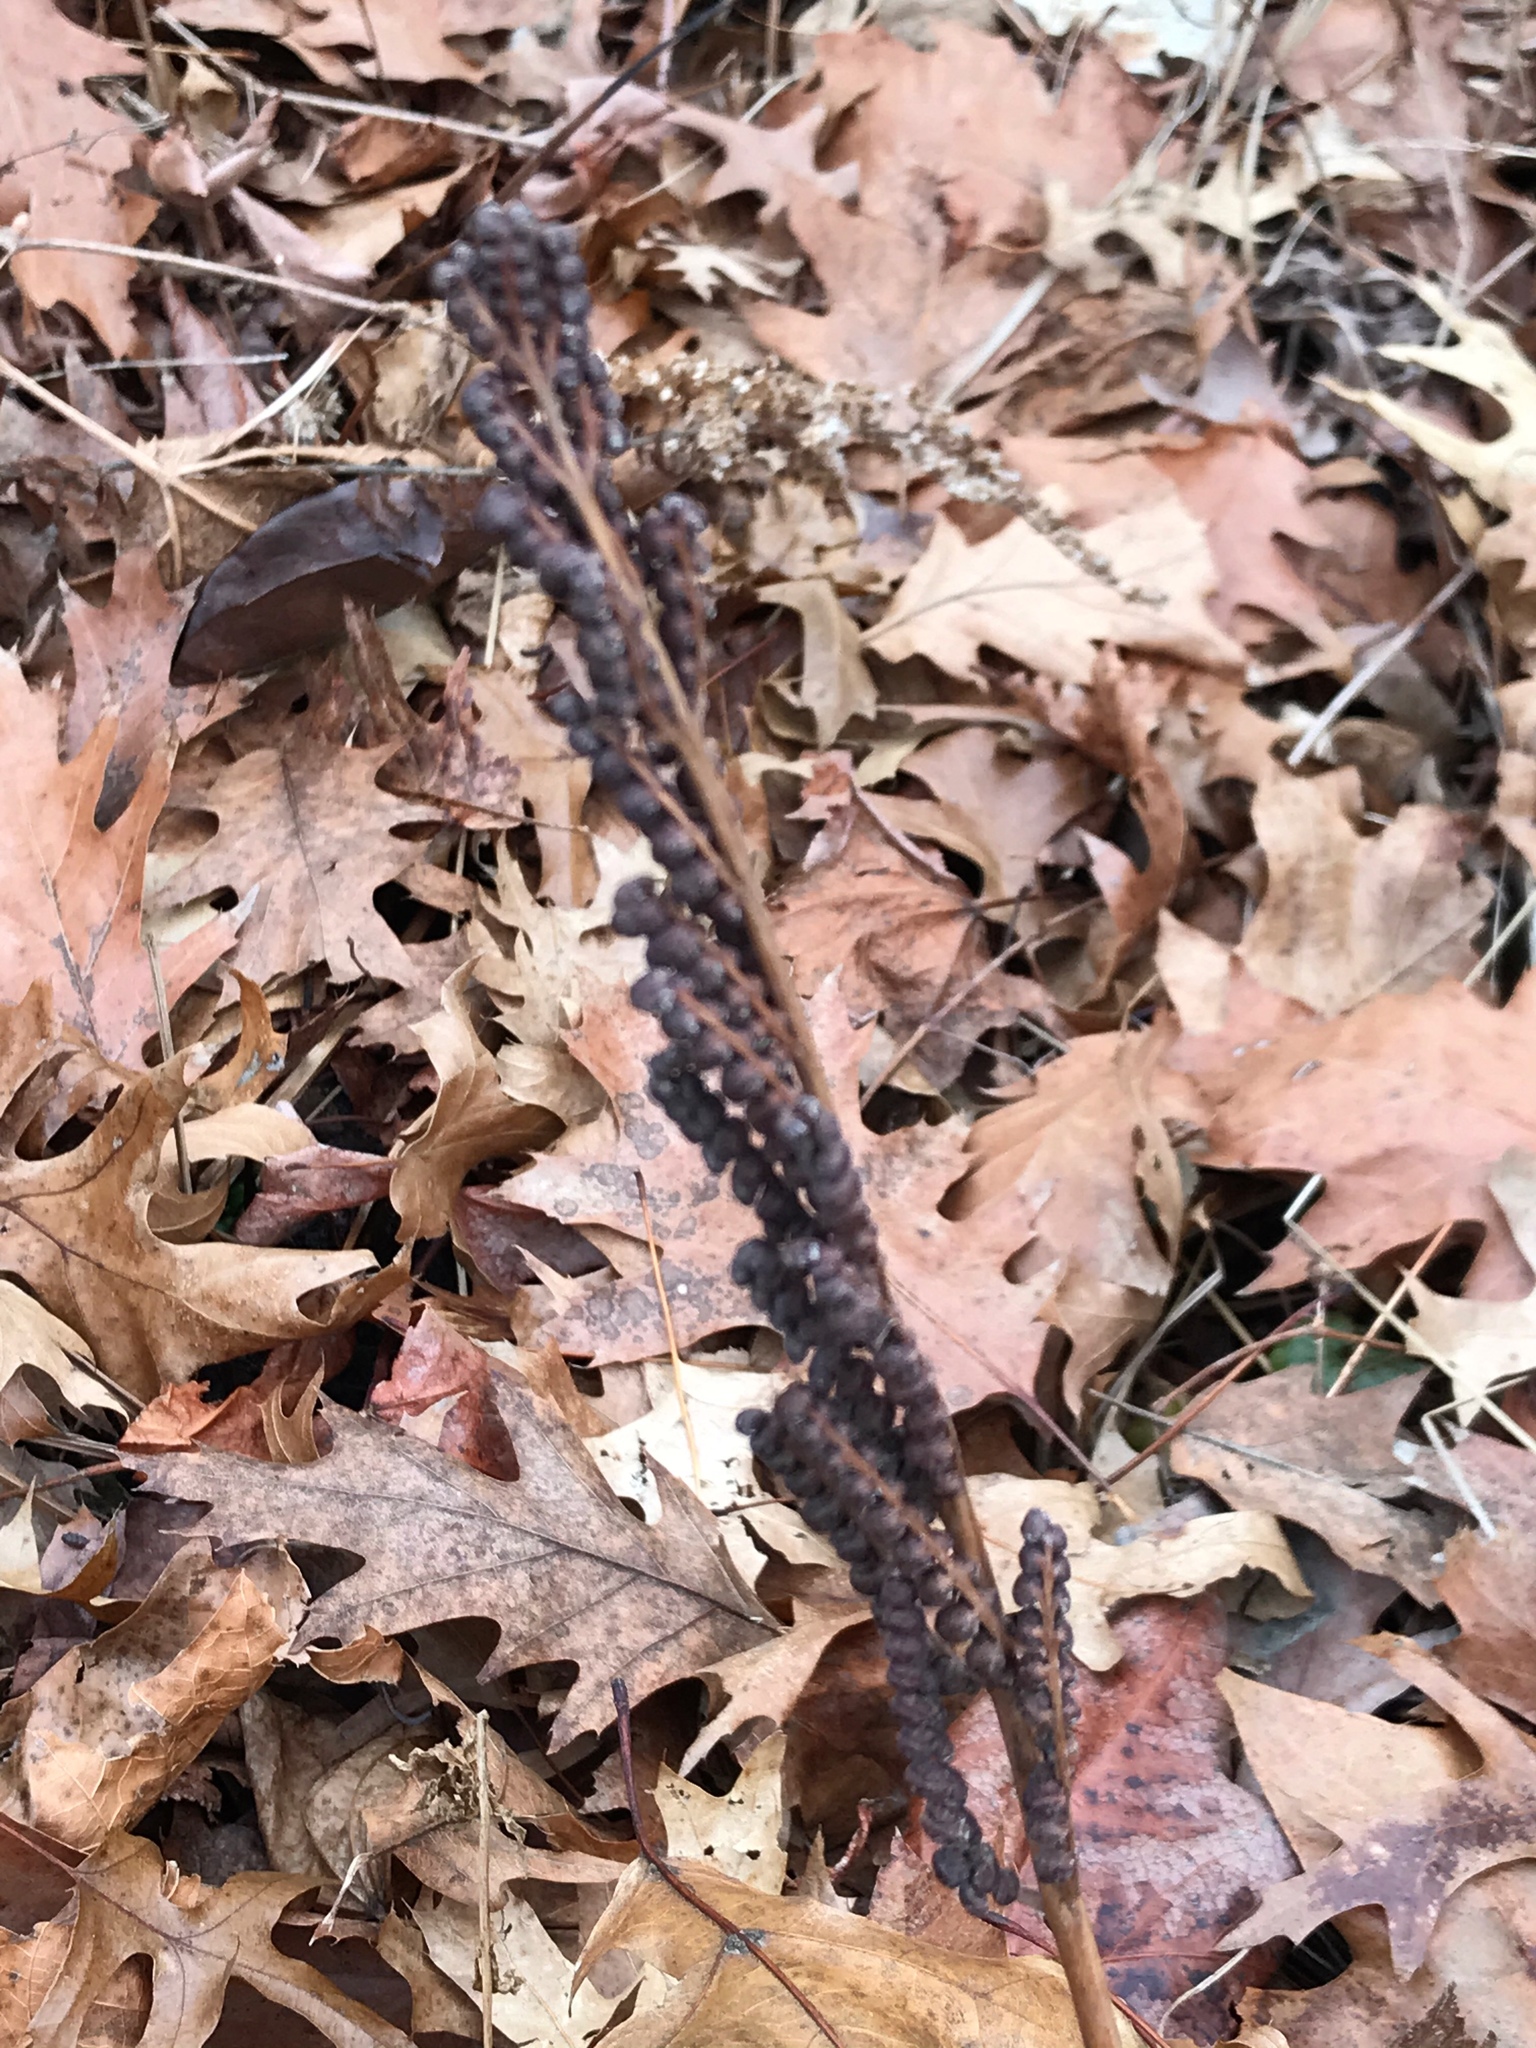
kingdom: Plantae
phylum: Tracheophyta
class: Polypodiopsida
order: Polypodiales
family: Onocleaceae
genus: Onoclea
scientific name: Onoclea sensibilis
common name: Sensitive fern
